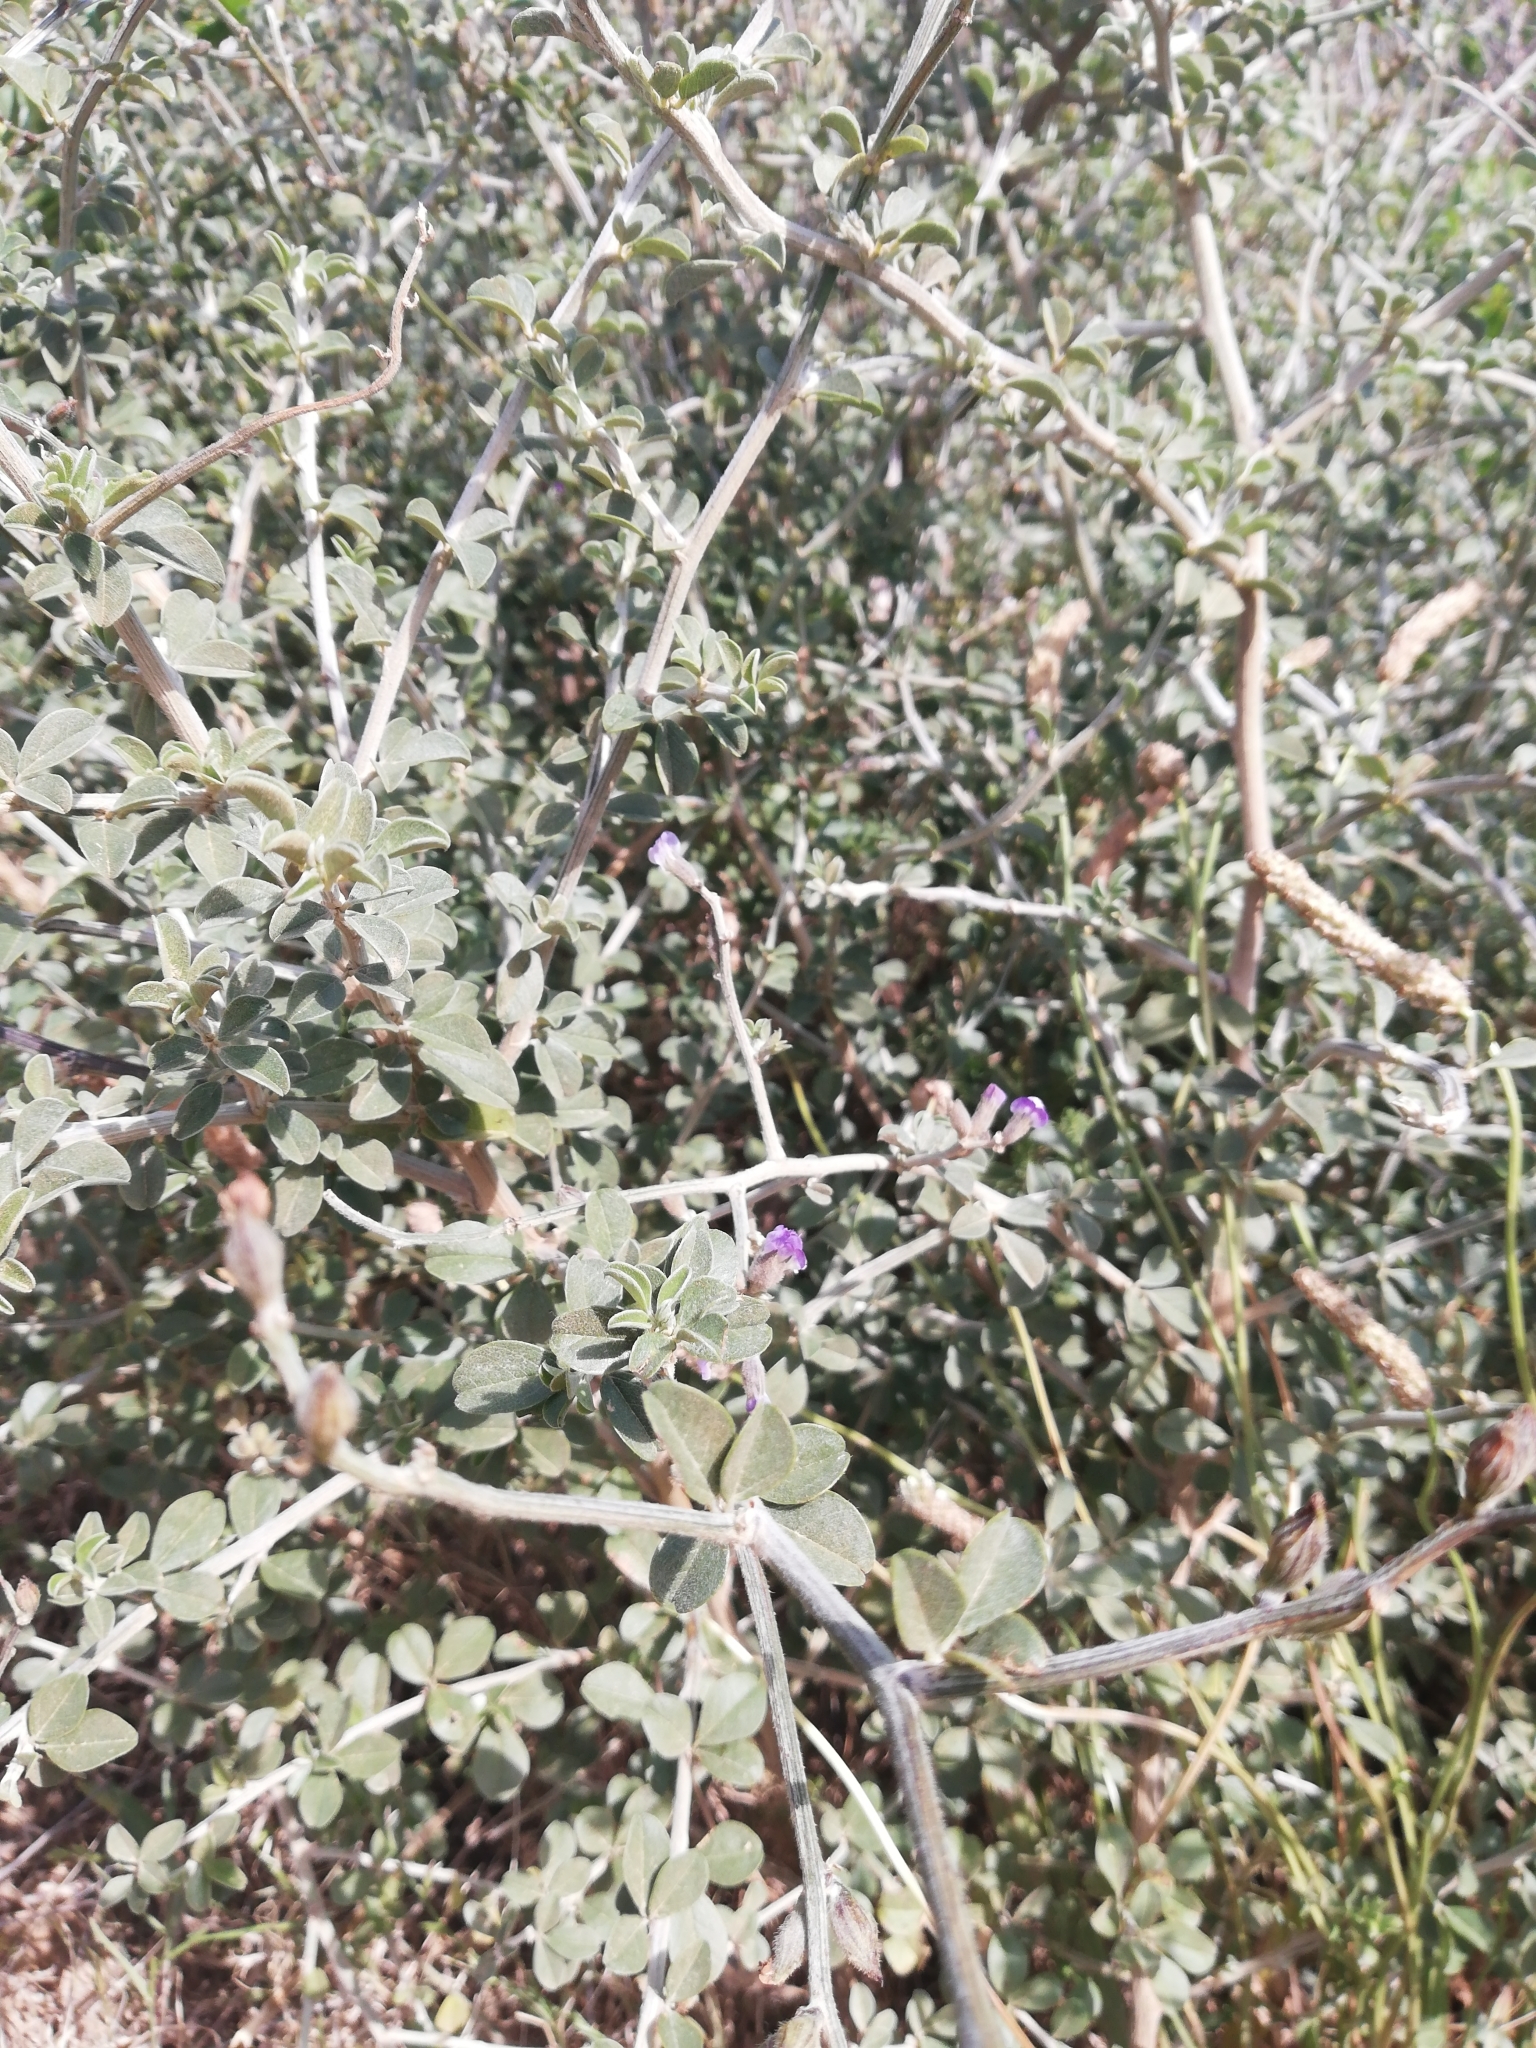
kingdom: Plantae
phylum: Tracheophyta
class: Magnoliopsida
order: Fabales
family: Fabaceae
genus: Psoralea
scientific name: Psoralea hirta
